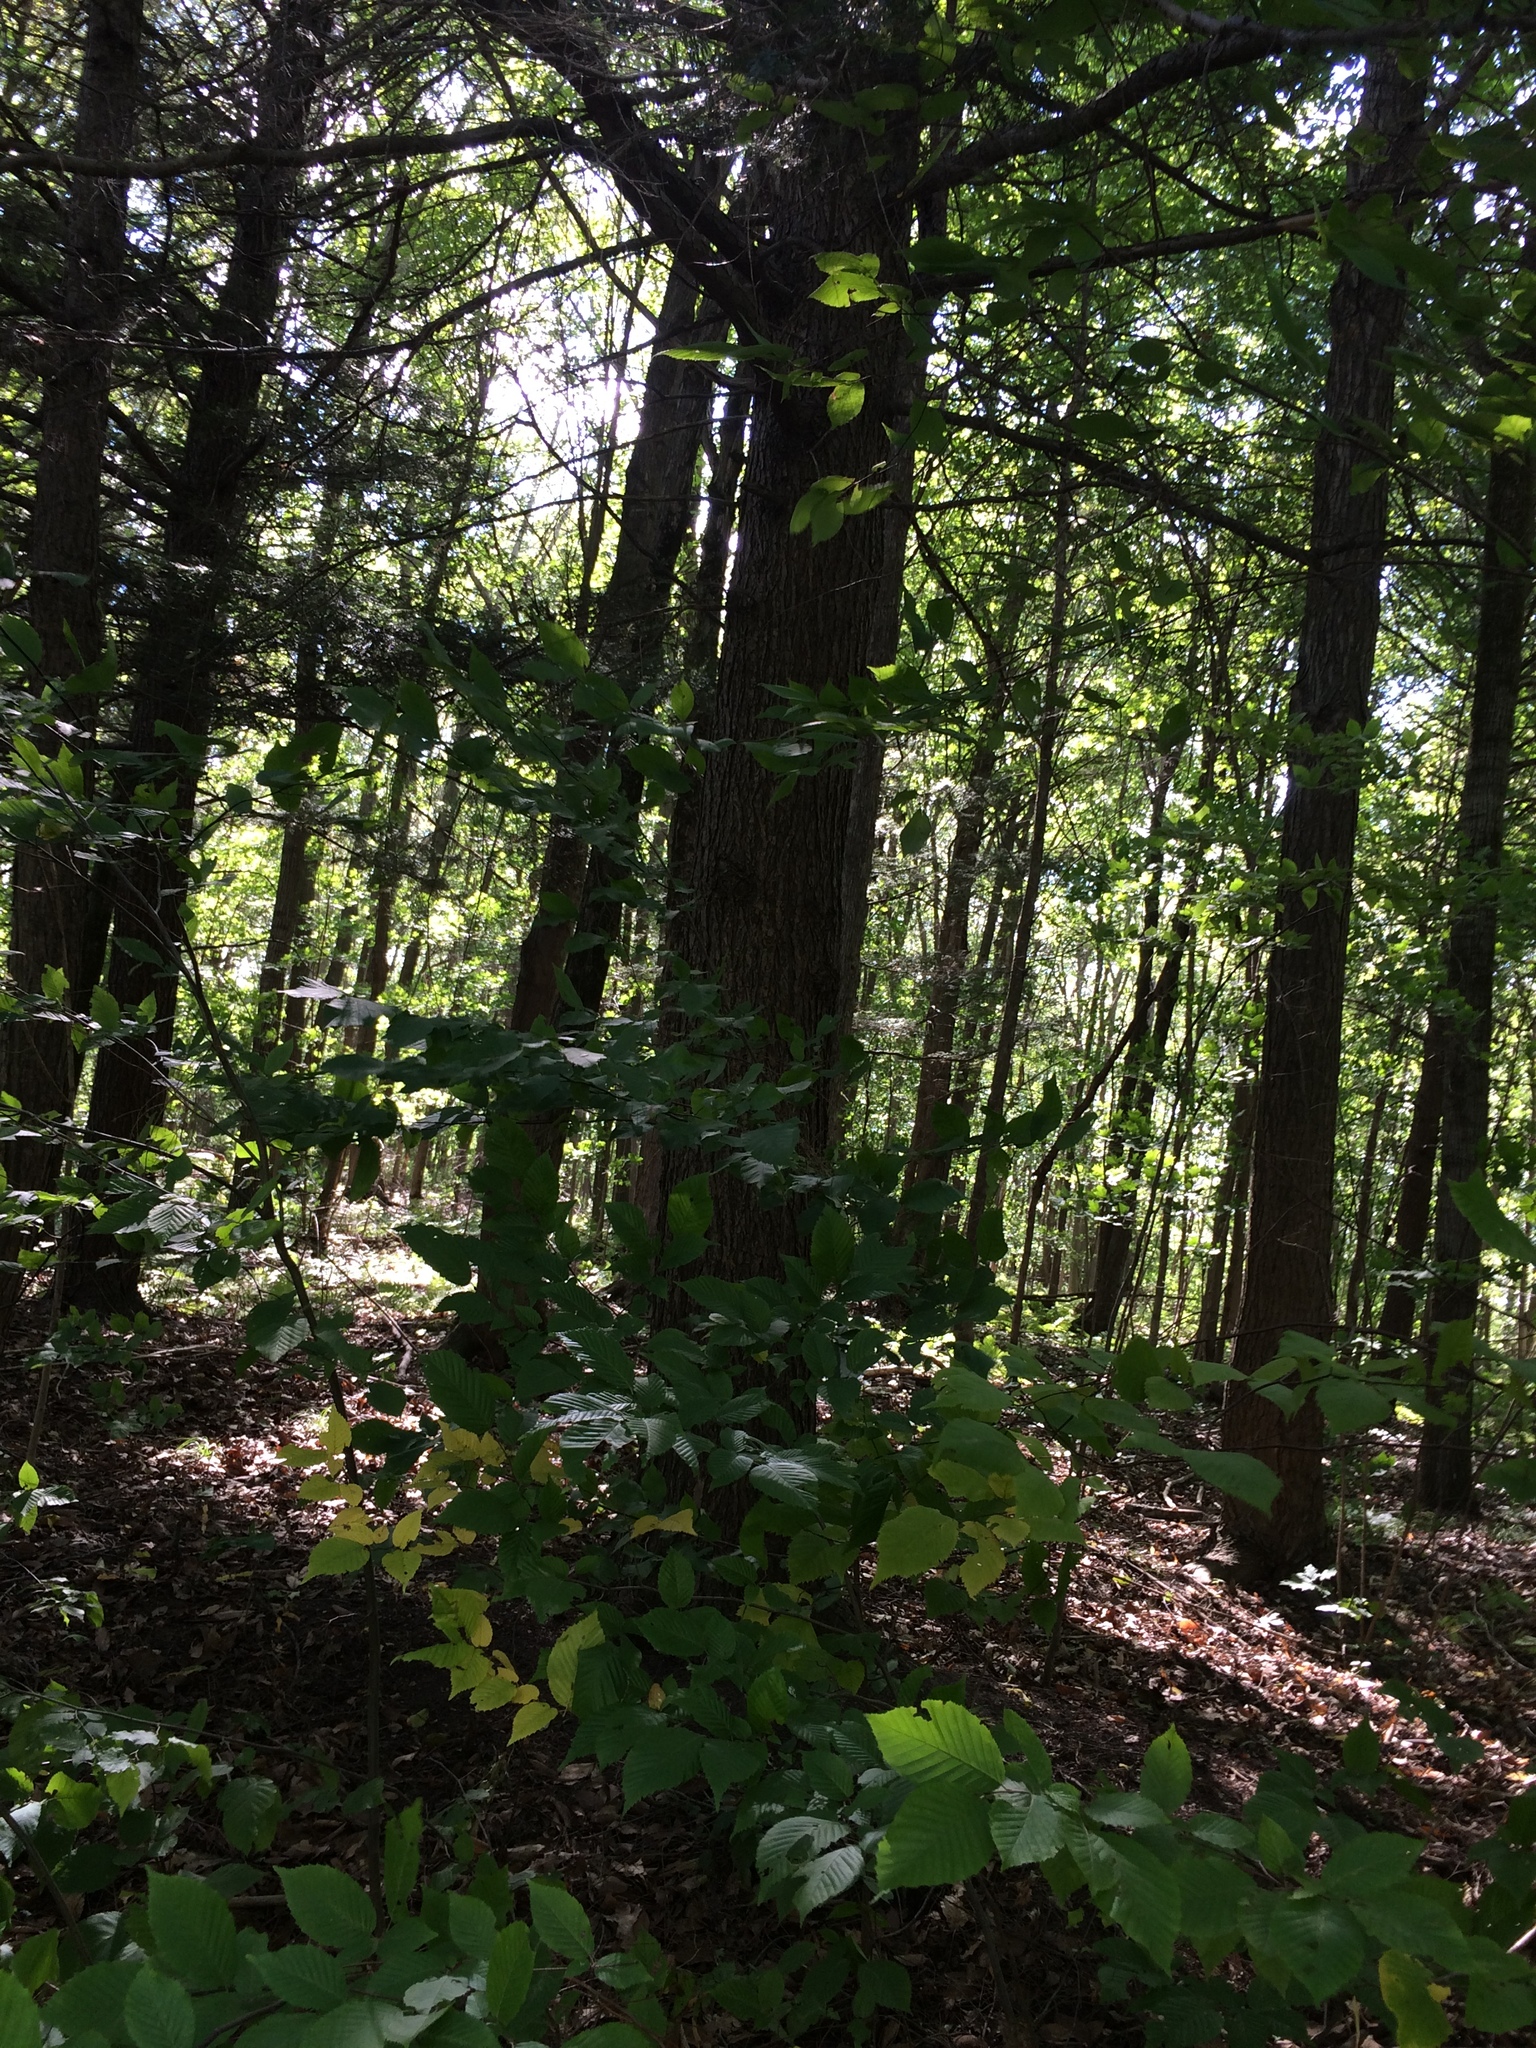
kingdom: Plantae
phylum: Tracheophyta
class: Pinopsida
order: Pinales
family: Pinaceae
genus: Tsuga
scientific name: Tsuga canadensis
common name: Eastern hemlock
